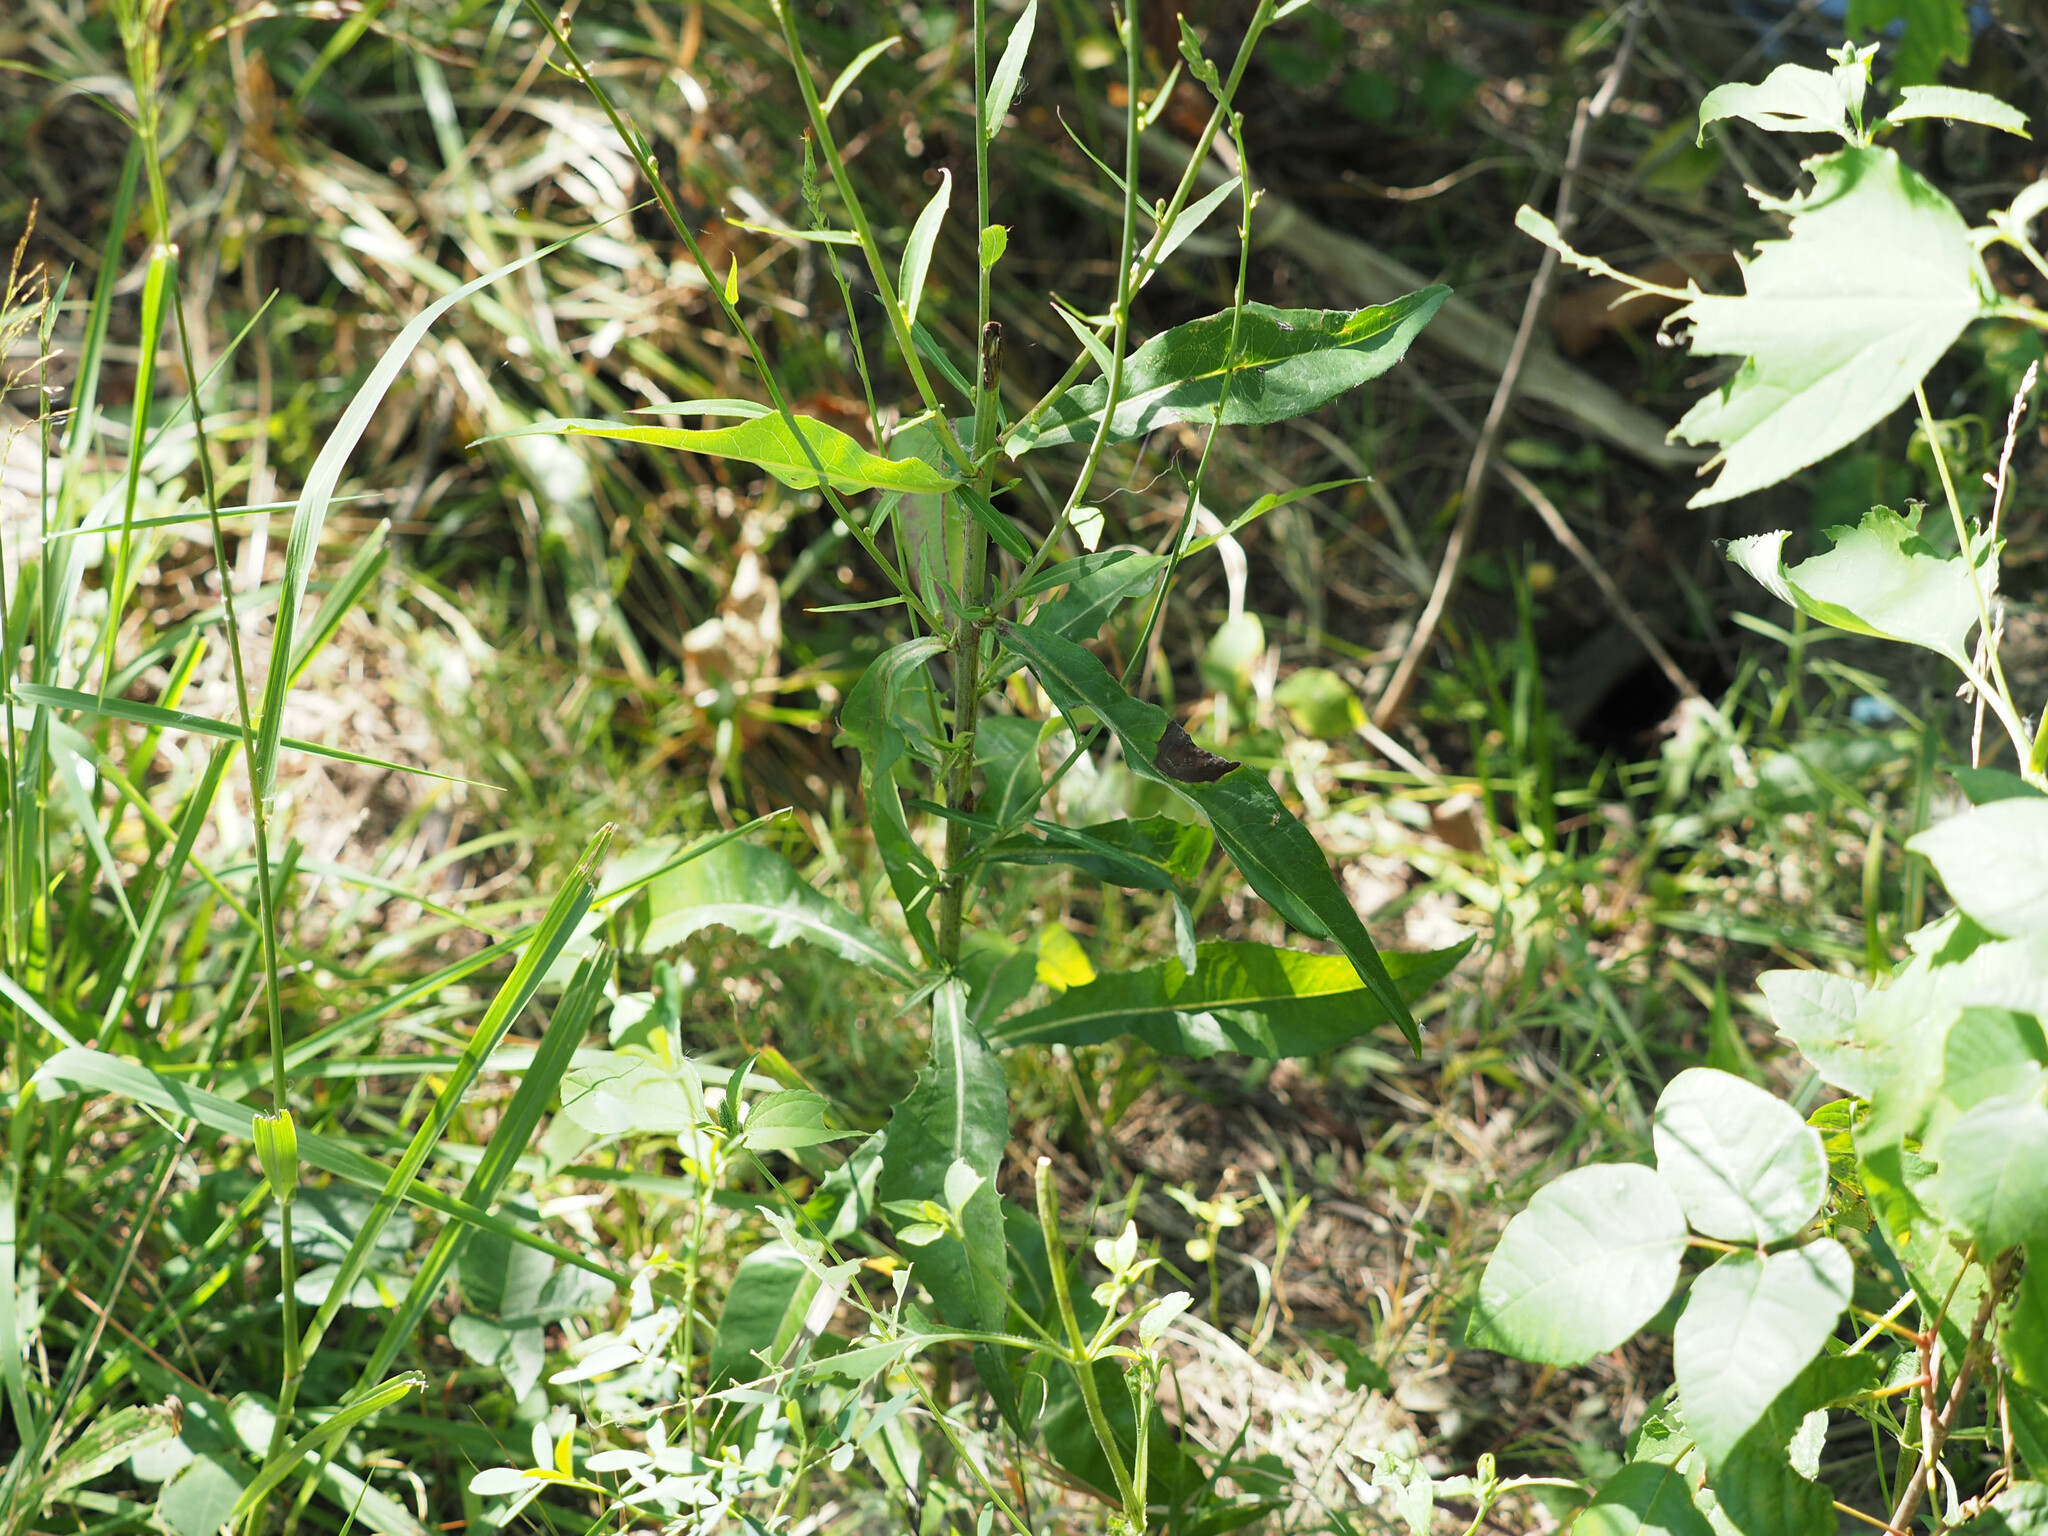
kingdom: Plantae
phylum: Tracheophyta
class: Magnoliopsida
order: Asterales
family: Asteraceae
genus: Lactuca
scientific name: Lactuca canadensis
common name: Canada lettuce
